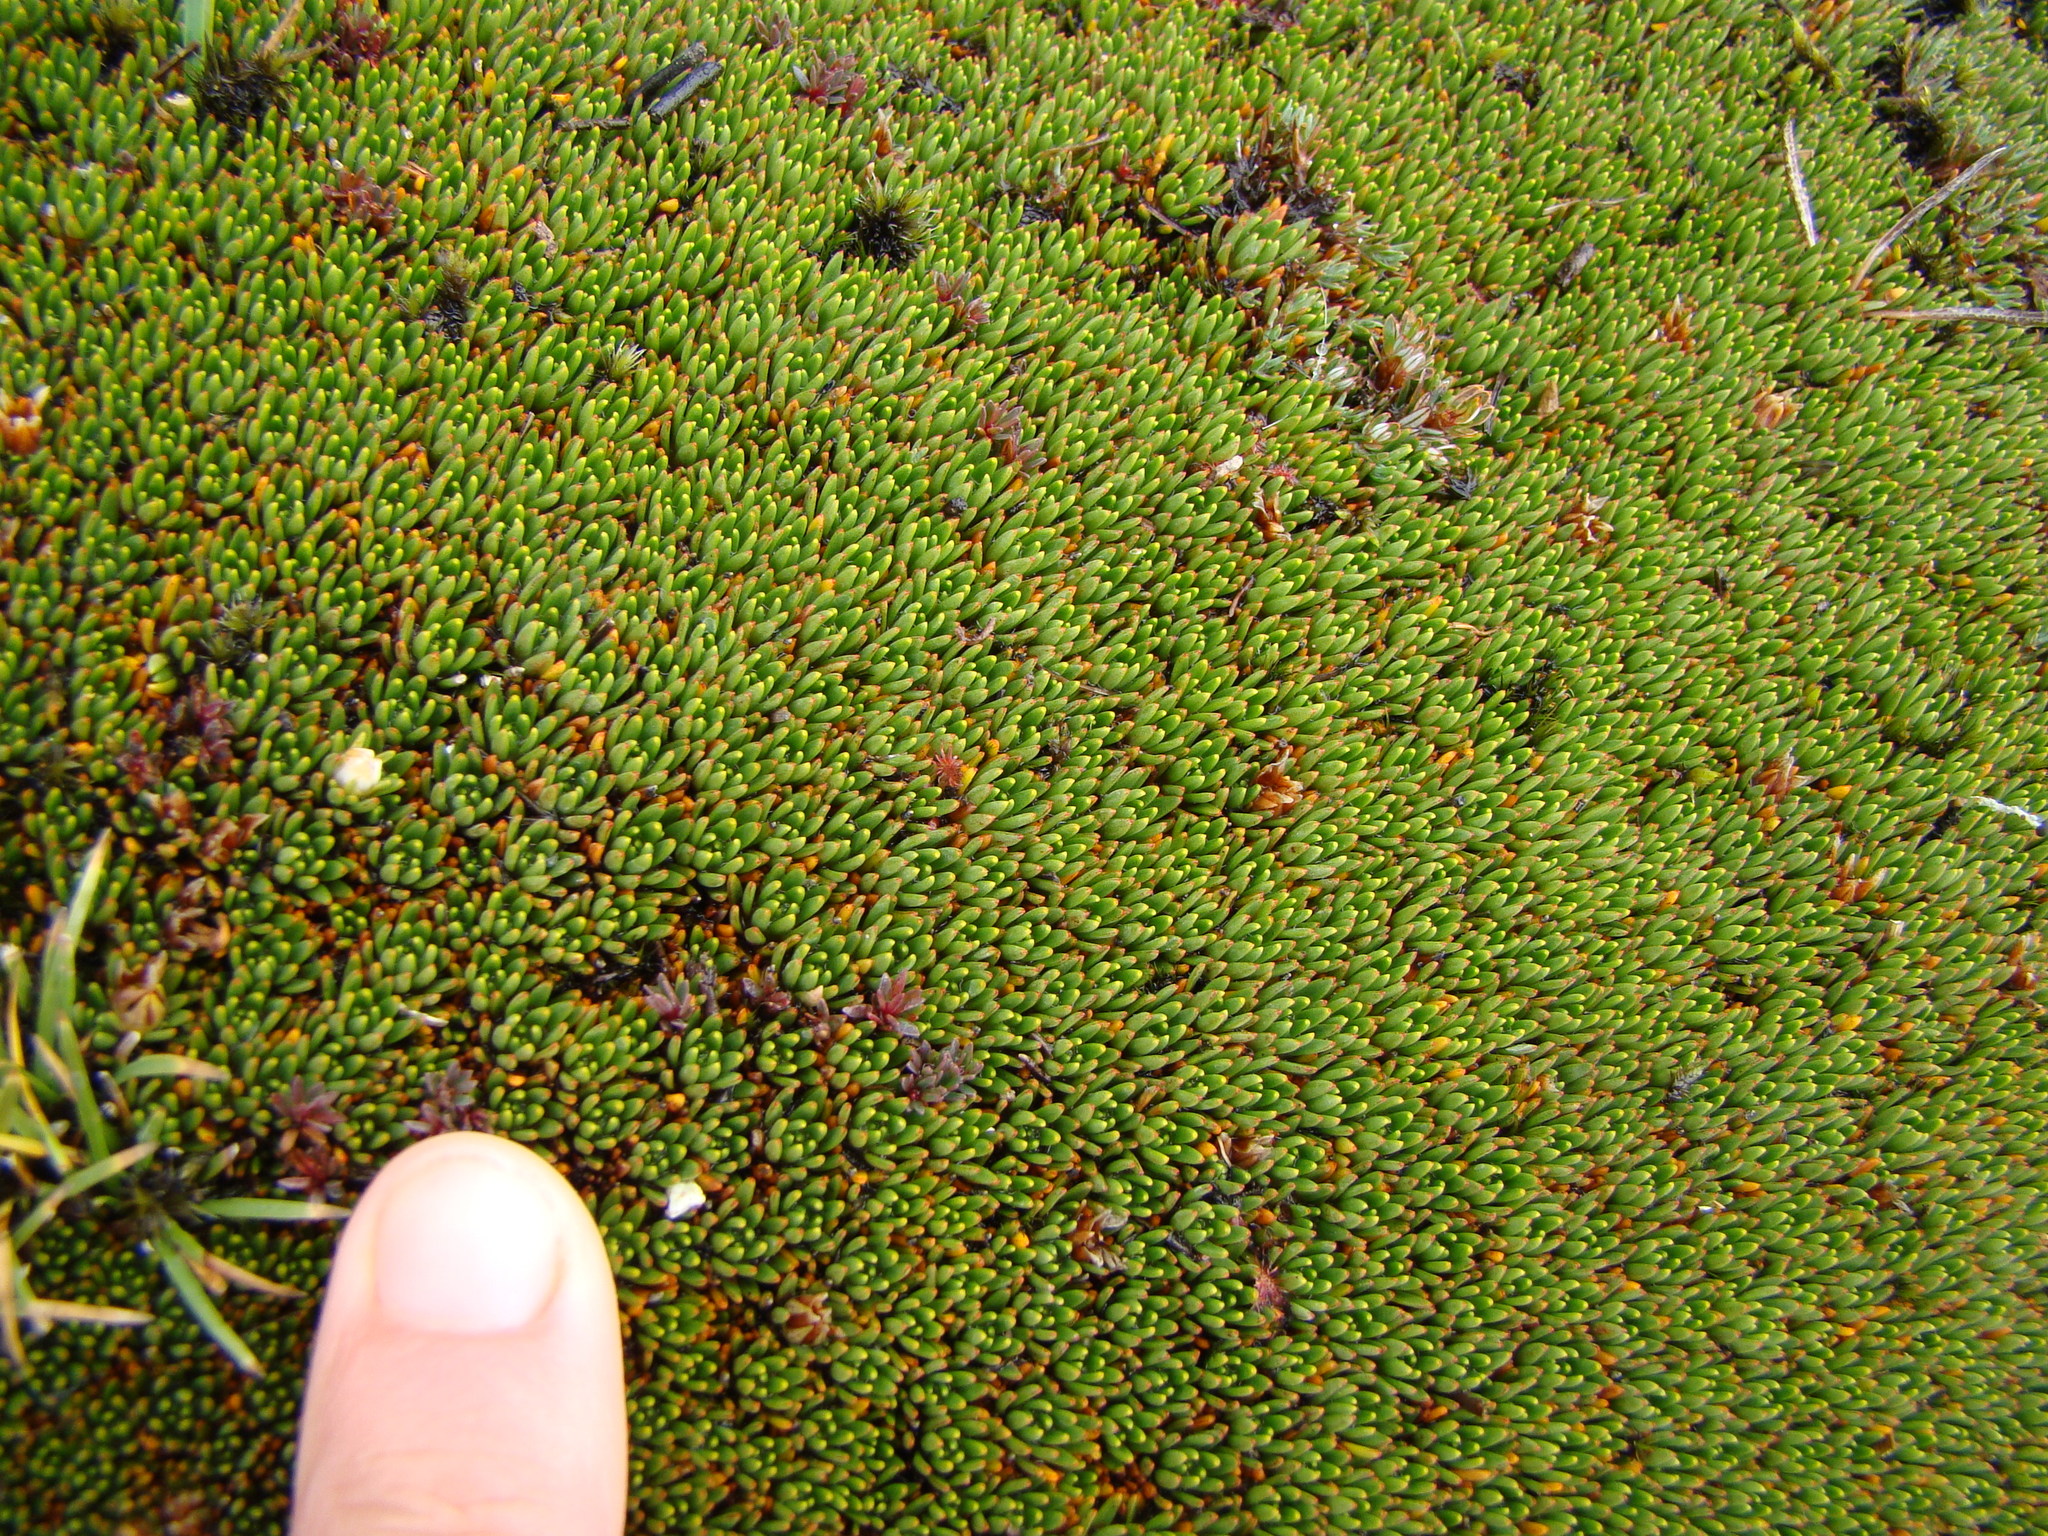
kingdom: Plantae
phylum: Tracheophyta
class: Magnoliopsida
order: Asterales
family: Stylidiaceae
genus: Donatia
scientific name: Donatia novae-zelandiae
